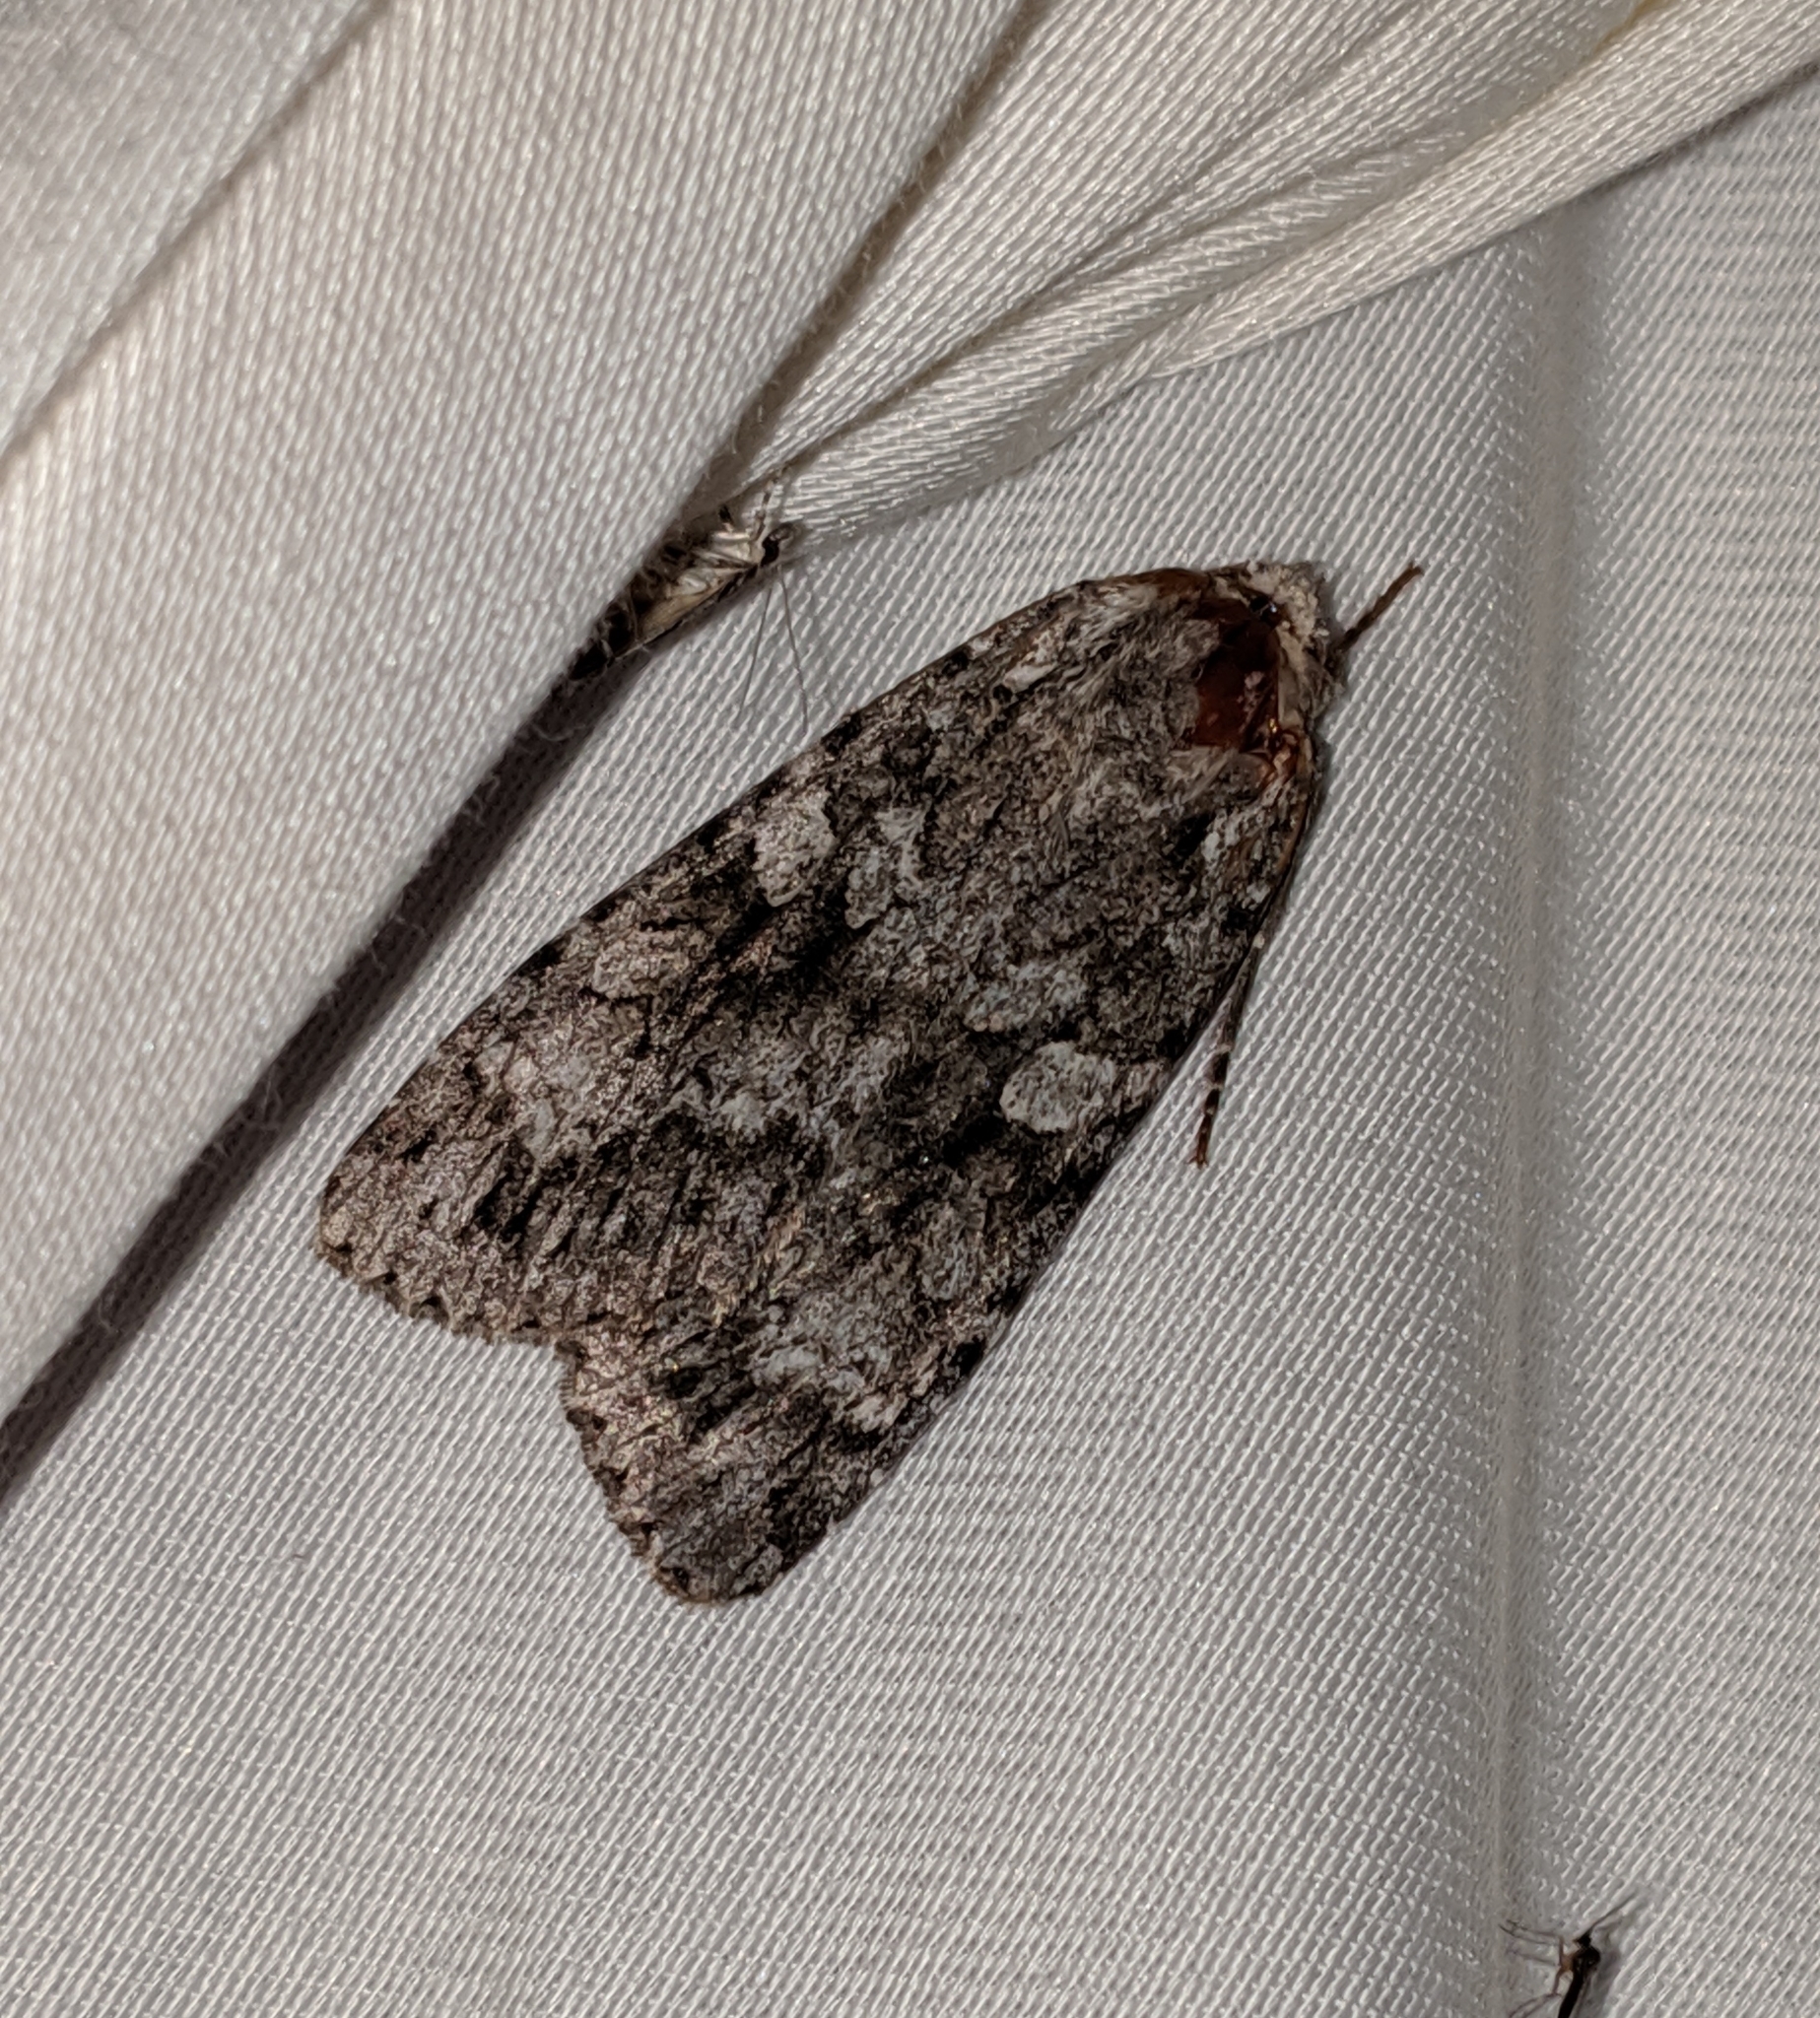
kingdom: Animalia
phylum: Arthropoda
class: Insecta
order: Lepidoptera
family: Noctuidae
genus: Eurois
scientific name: Eurois occulta
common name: Great brocade
